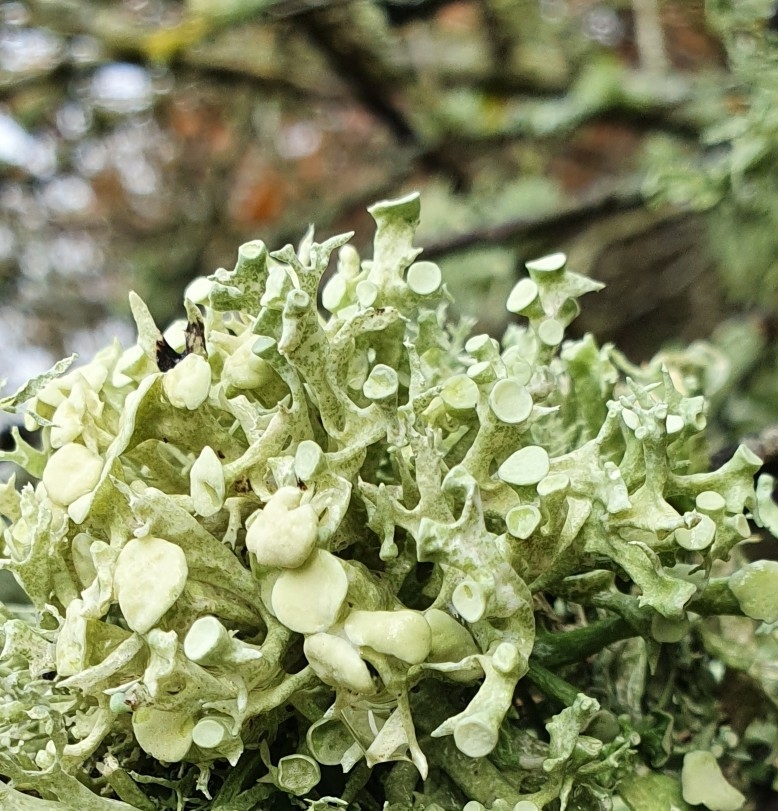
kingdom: Fungi
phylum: Ascomycota
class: Lecanoromycetes
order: Lecanorales
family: Ramalinaceae
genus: Ramalina
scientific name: Ramalina fastigiata
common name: Dotted ribbon lichen
